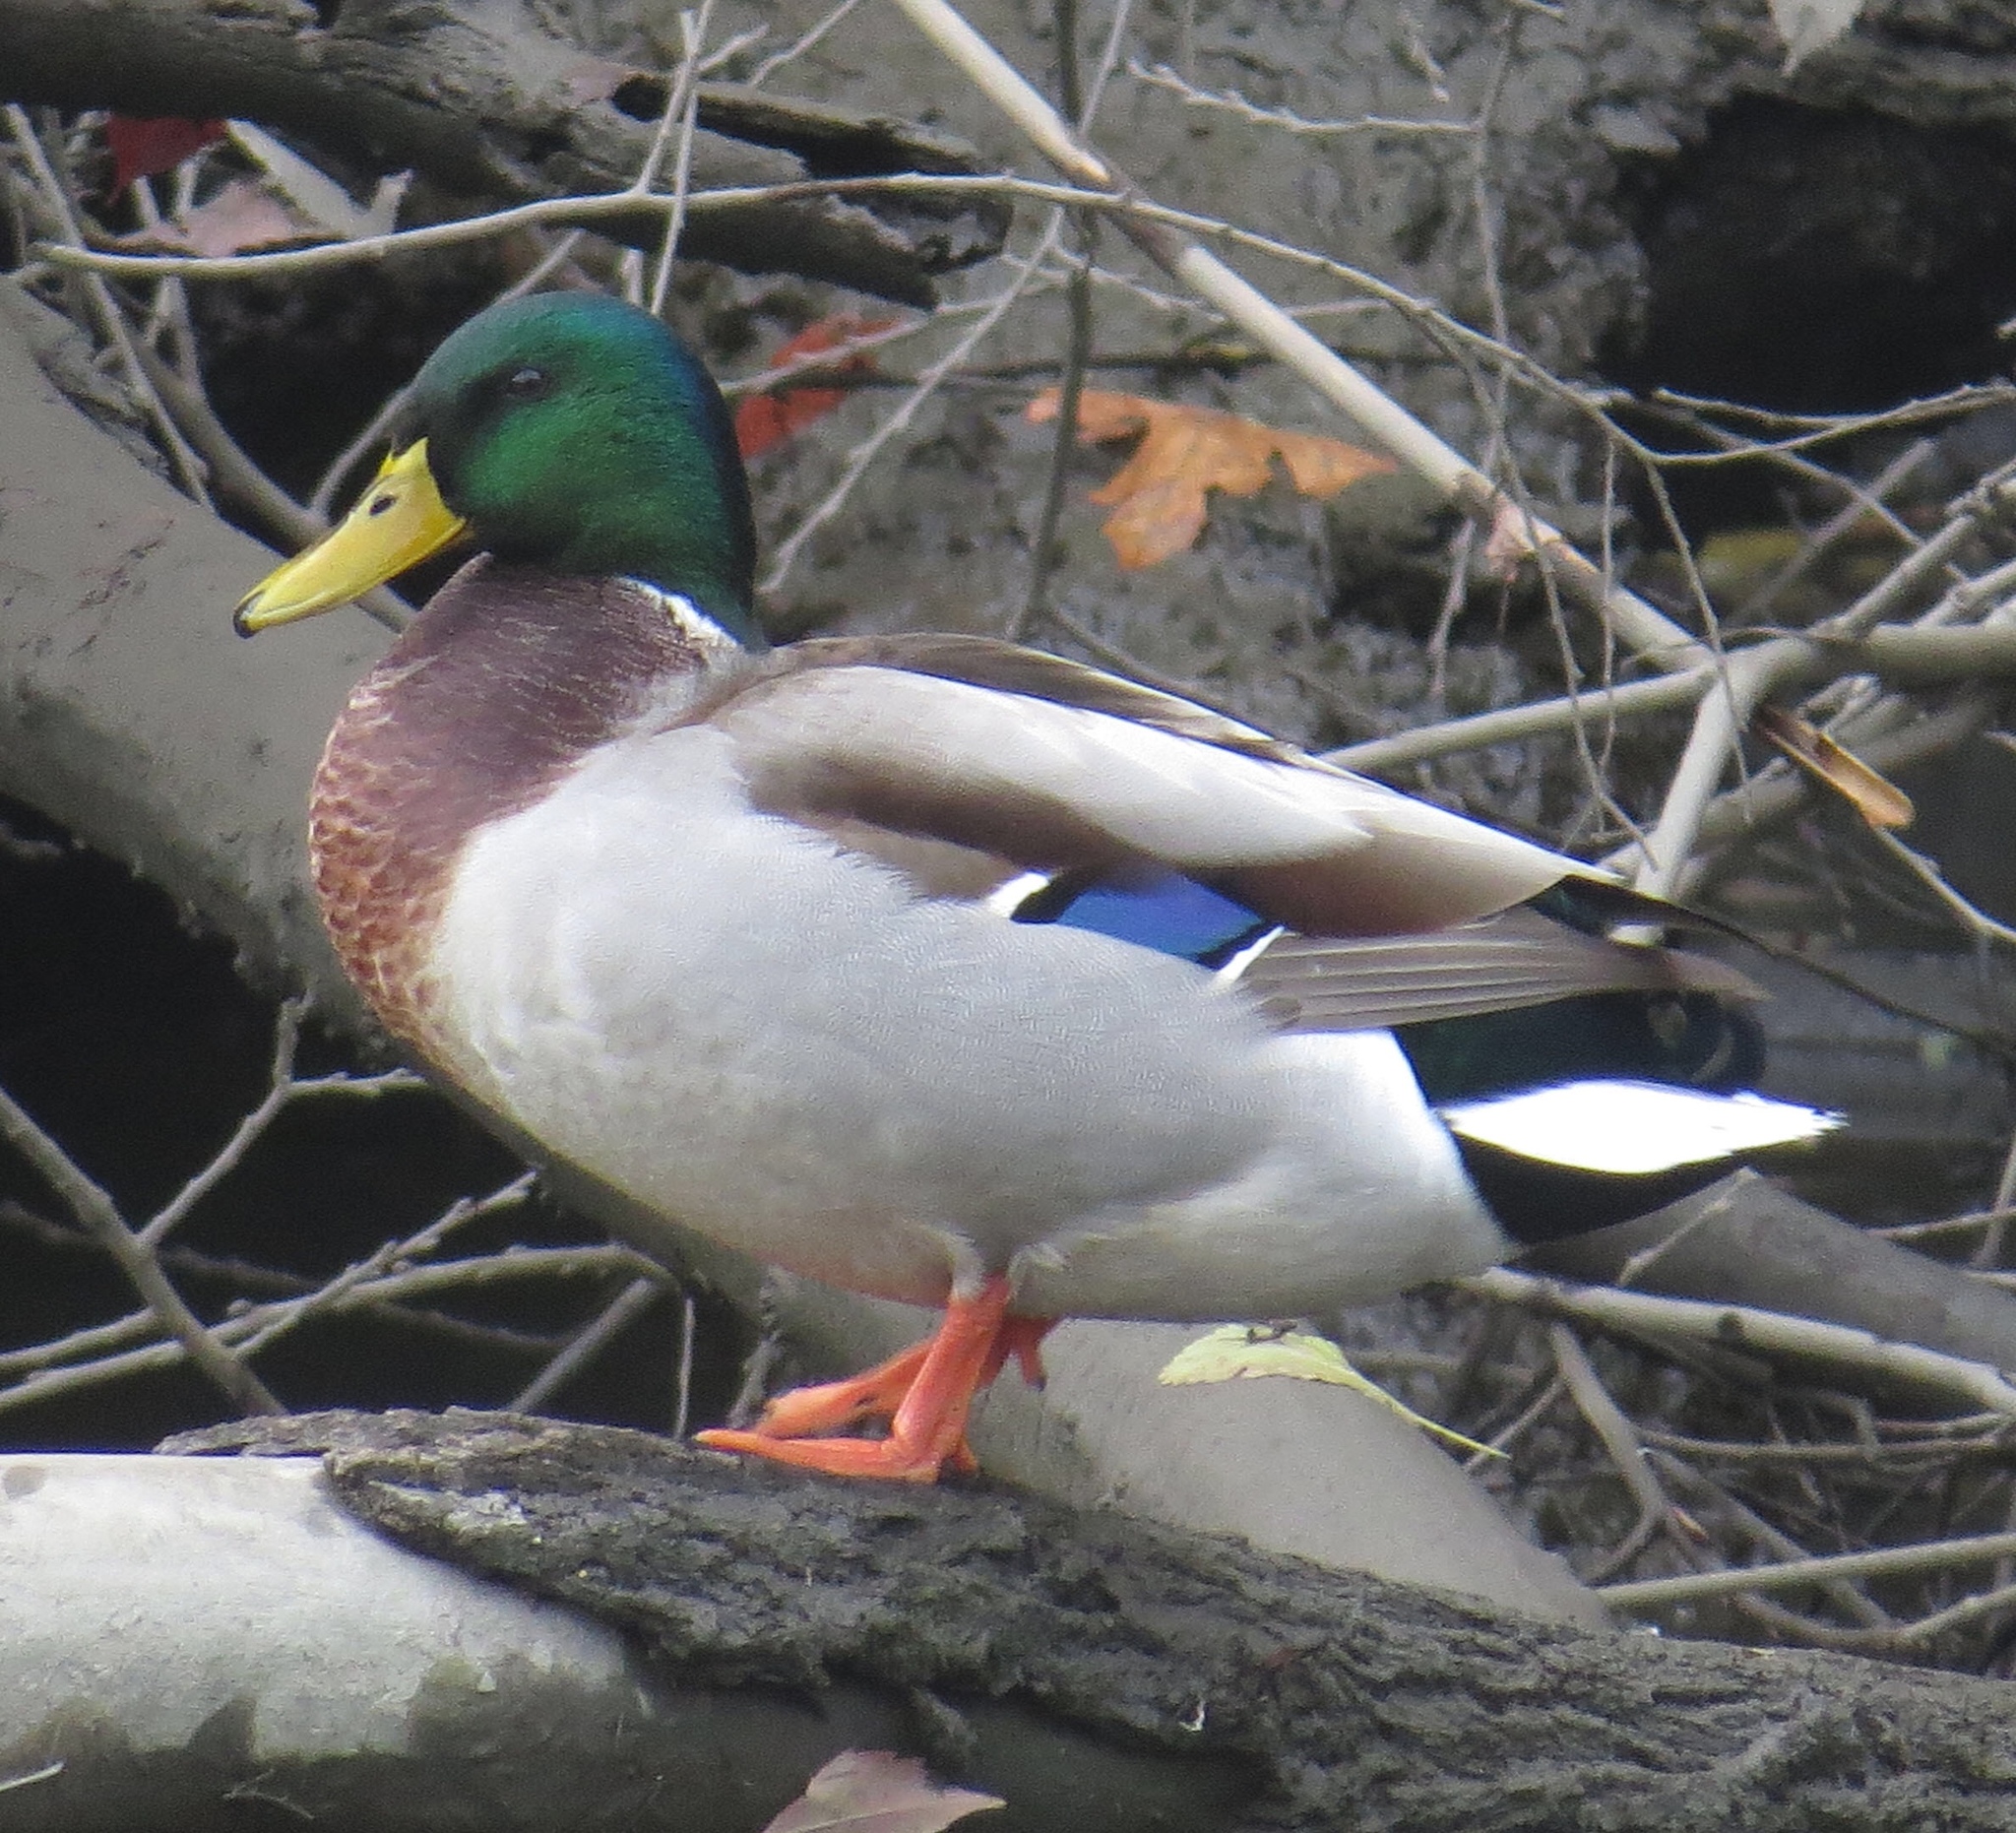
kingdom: Animalia
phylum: Chordata
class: Aves
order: Anseriformes
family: Anatidae
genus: Anas
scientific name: Anas platyrhynchos
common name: Mallard
